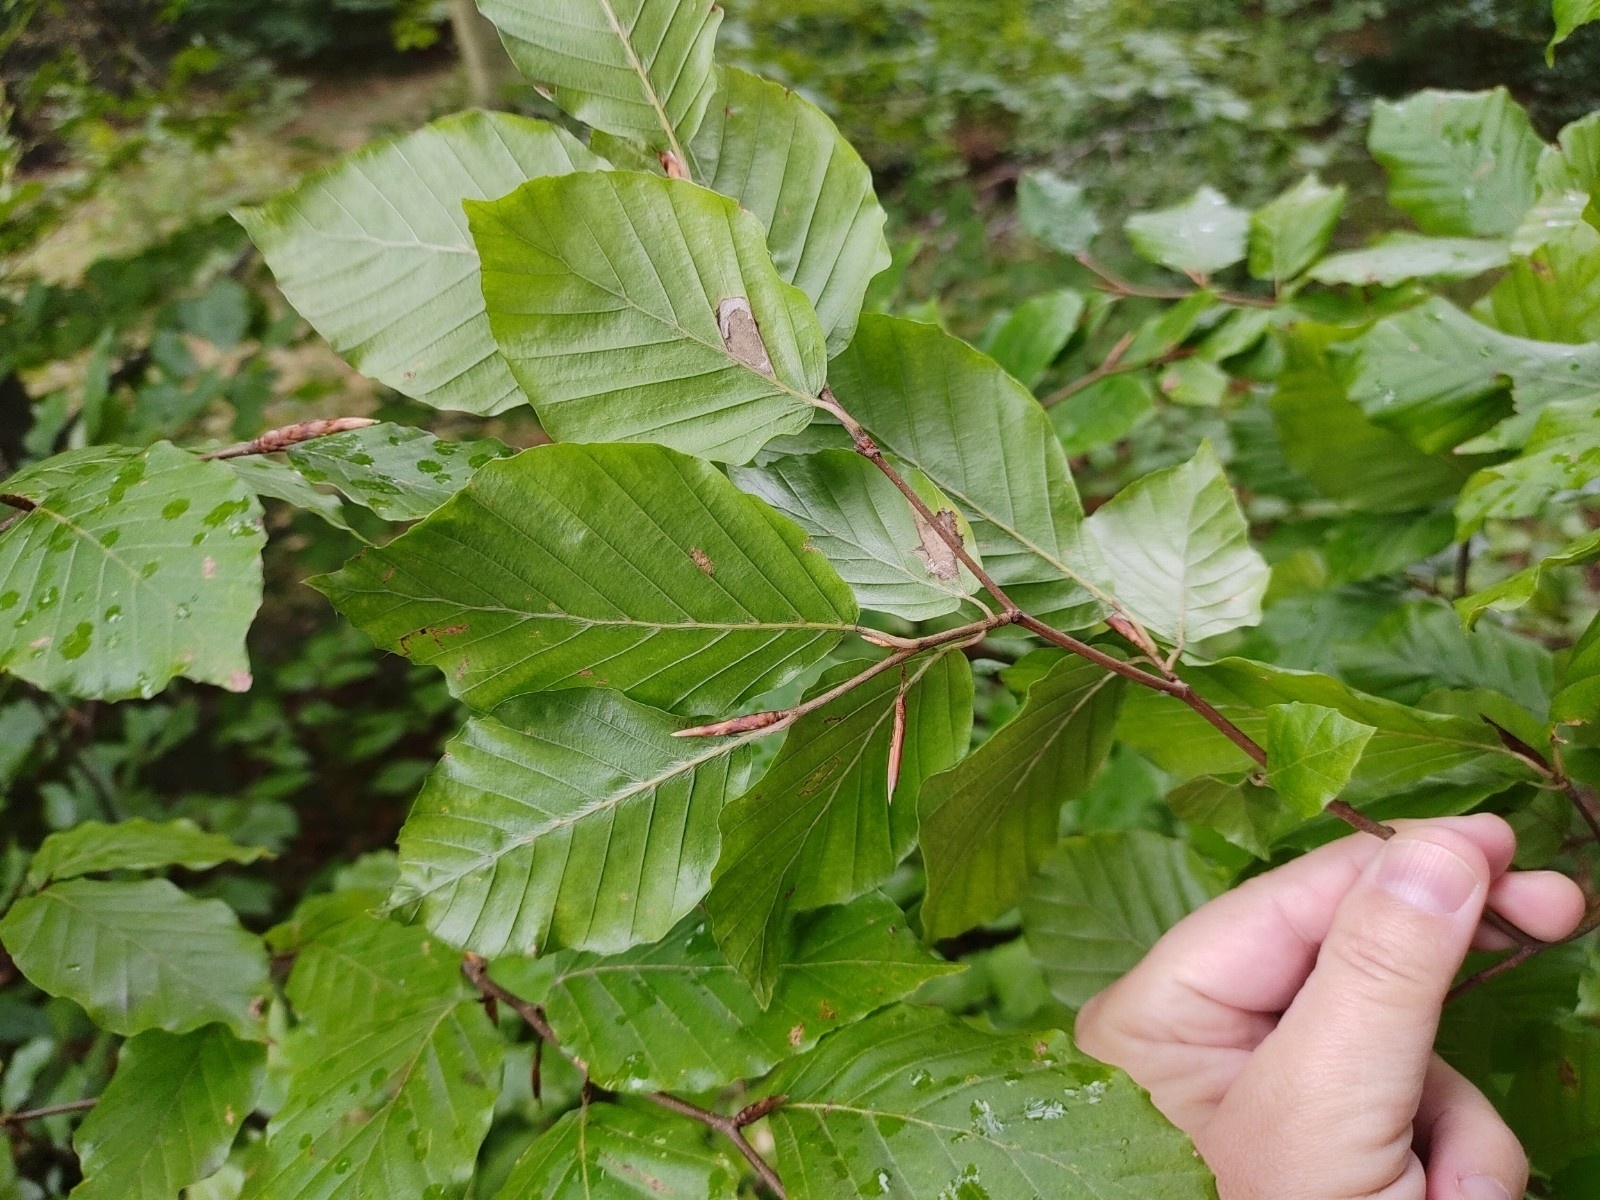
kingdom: Plantae
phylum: Tracheophyta
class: Magnoliopsida
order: Fagales
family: Fagaceae
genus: Fagus
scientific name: Fagus sylvatica
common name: Beech
